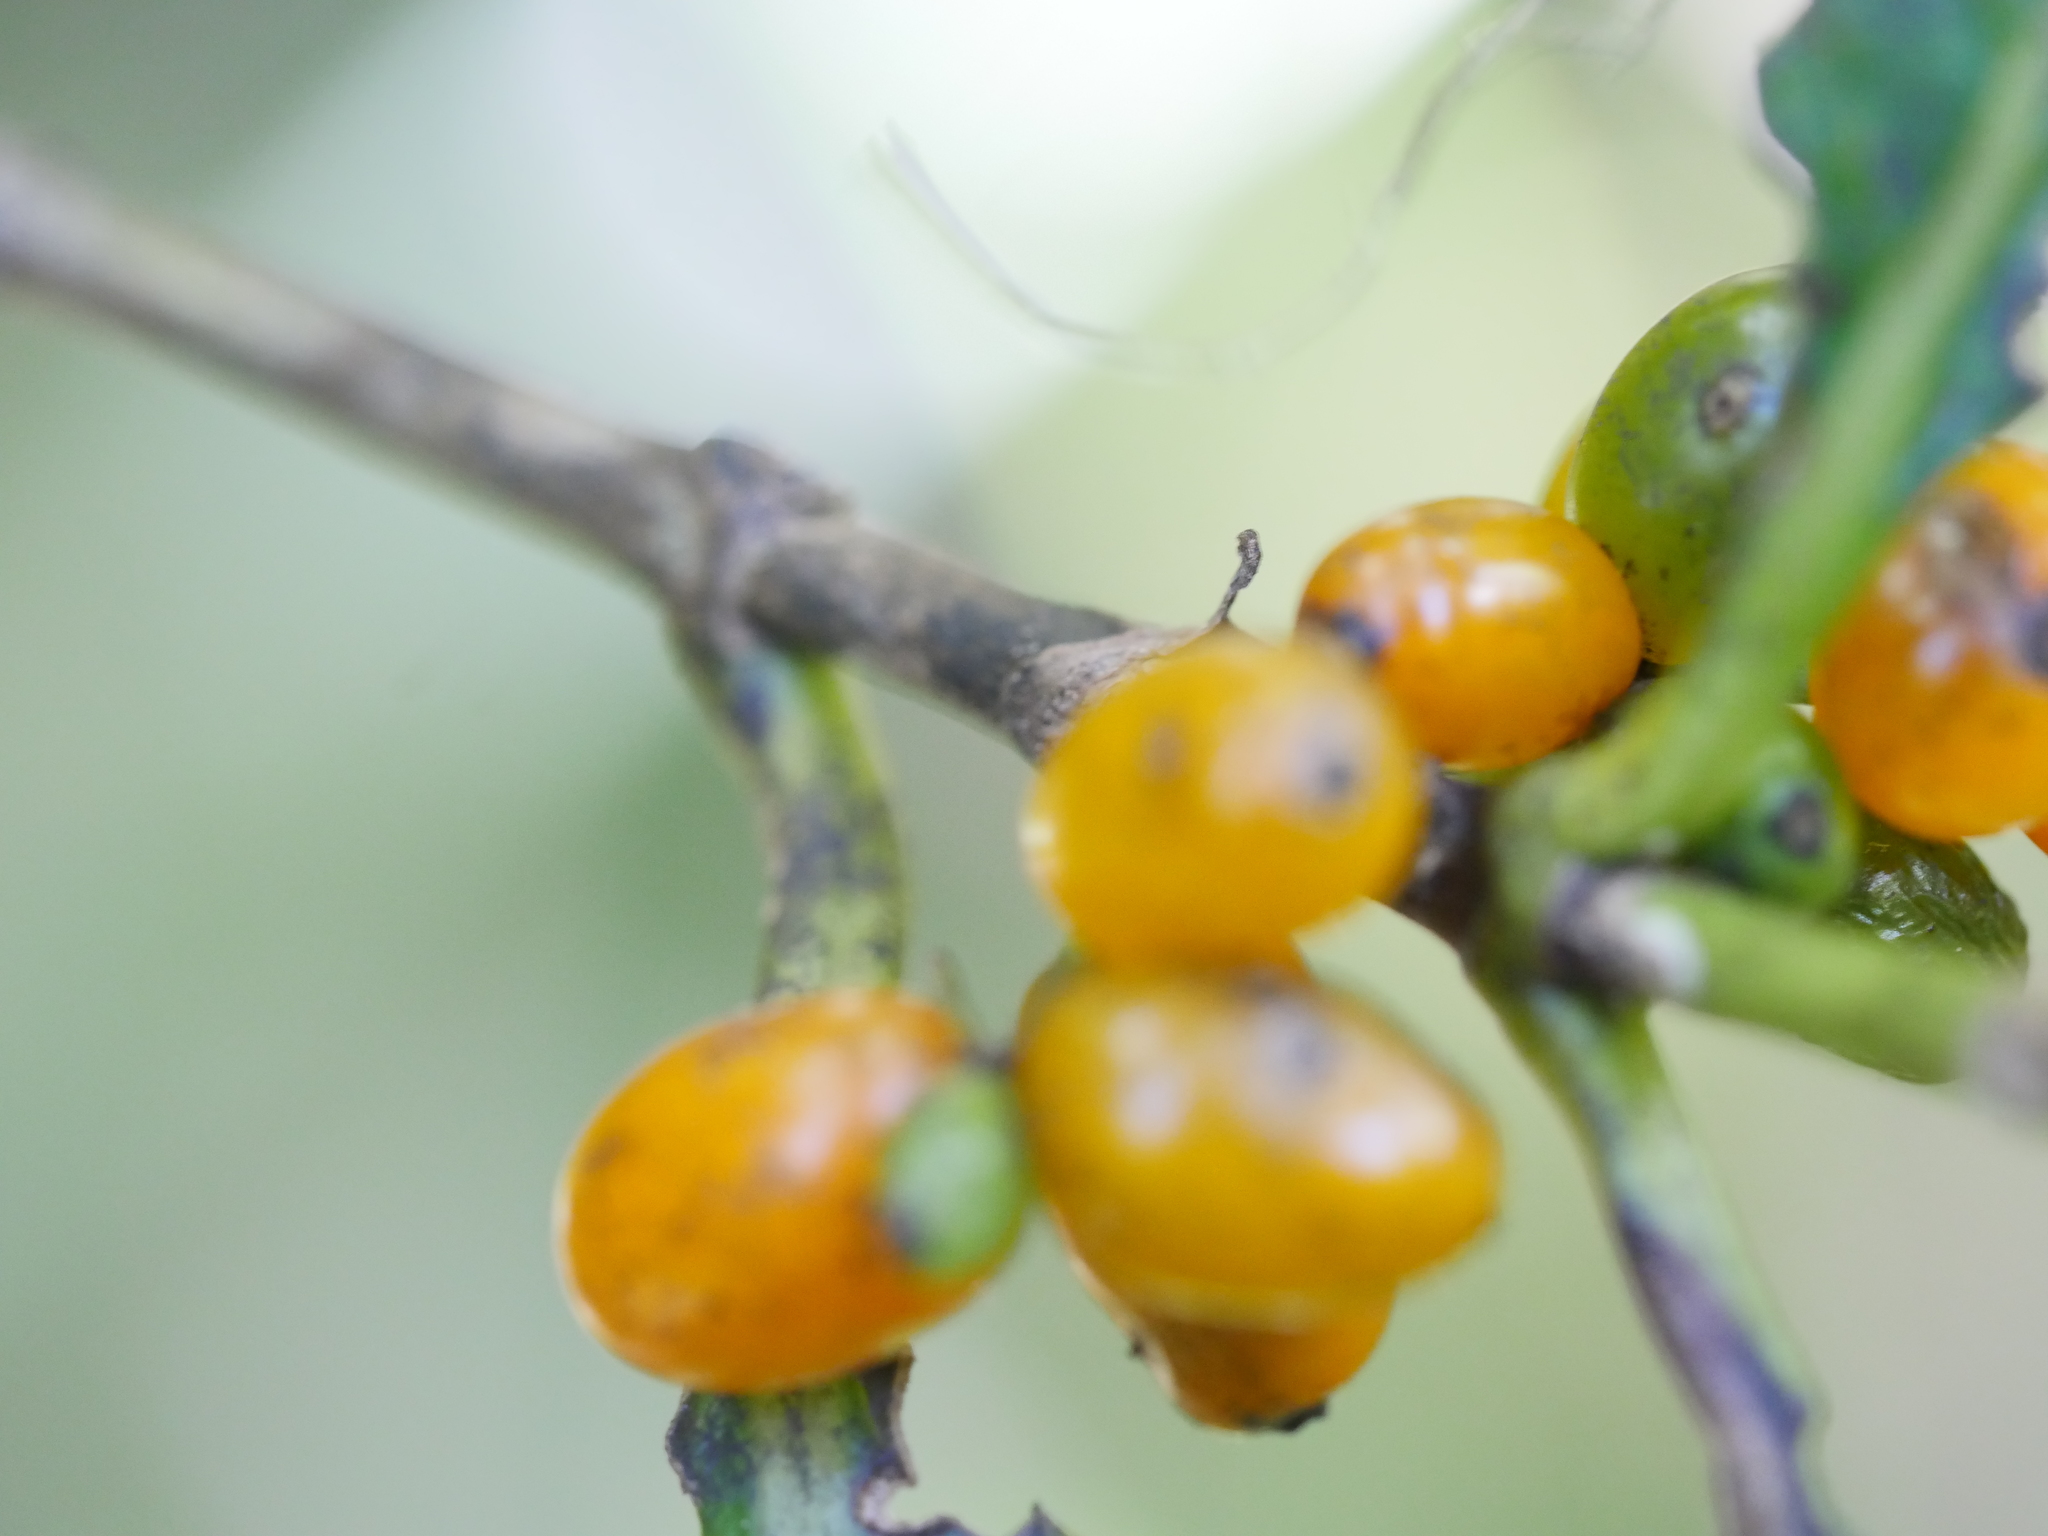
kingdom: Plantae
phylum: Tracheophyta
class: Magnoliopsida
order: Gentianales
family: Rubiaceae
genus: Coprosma
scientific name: Coprosma robusta
